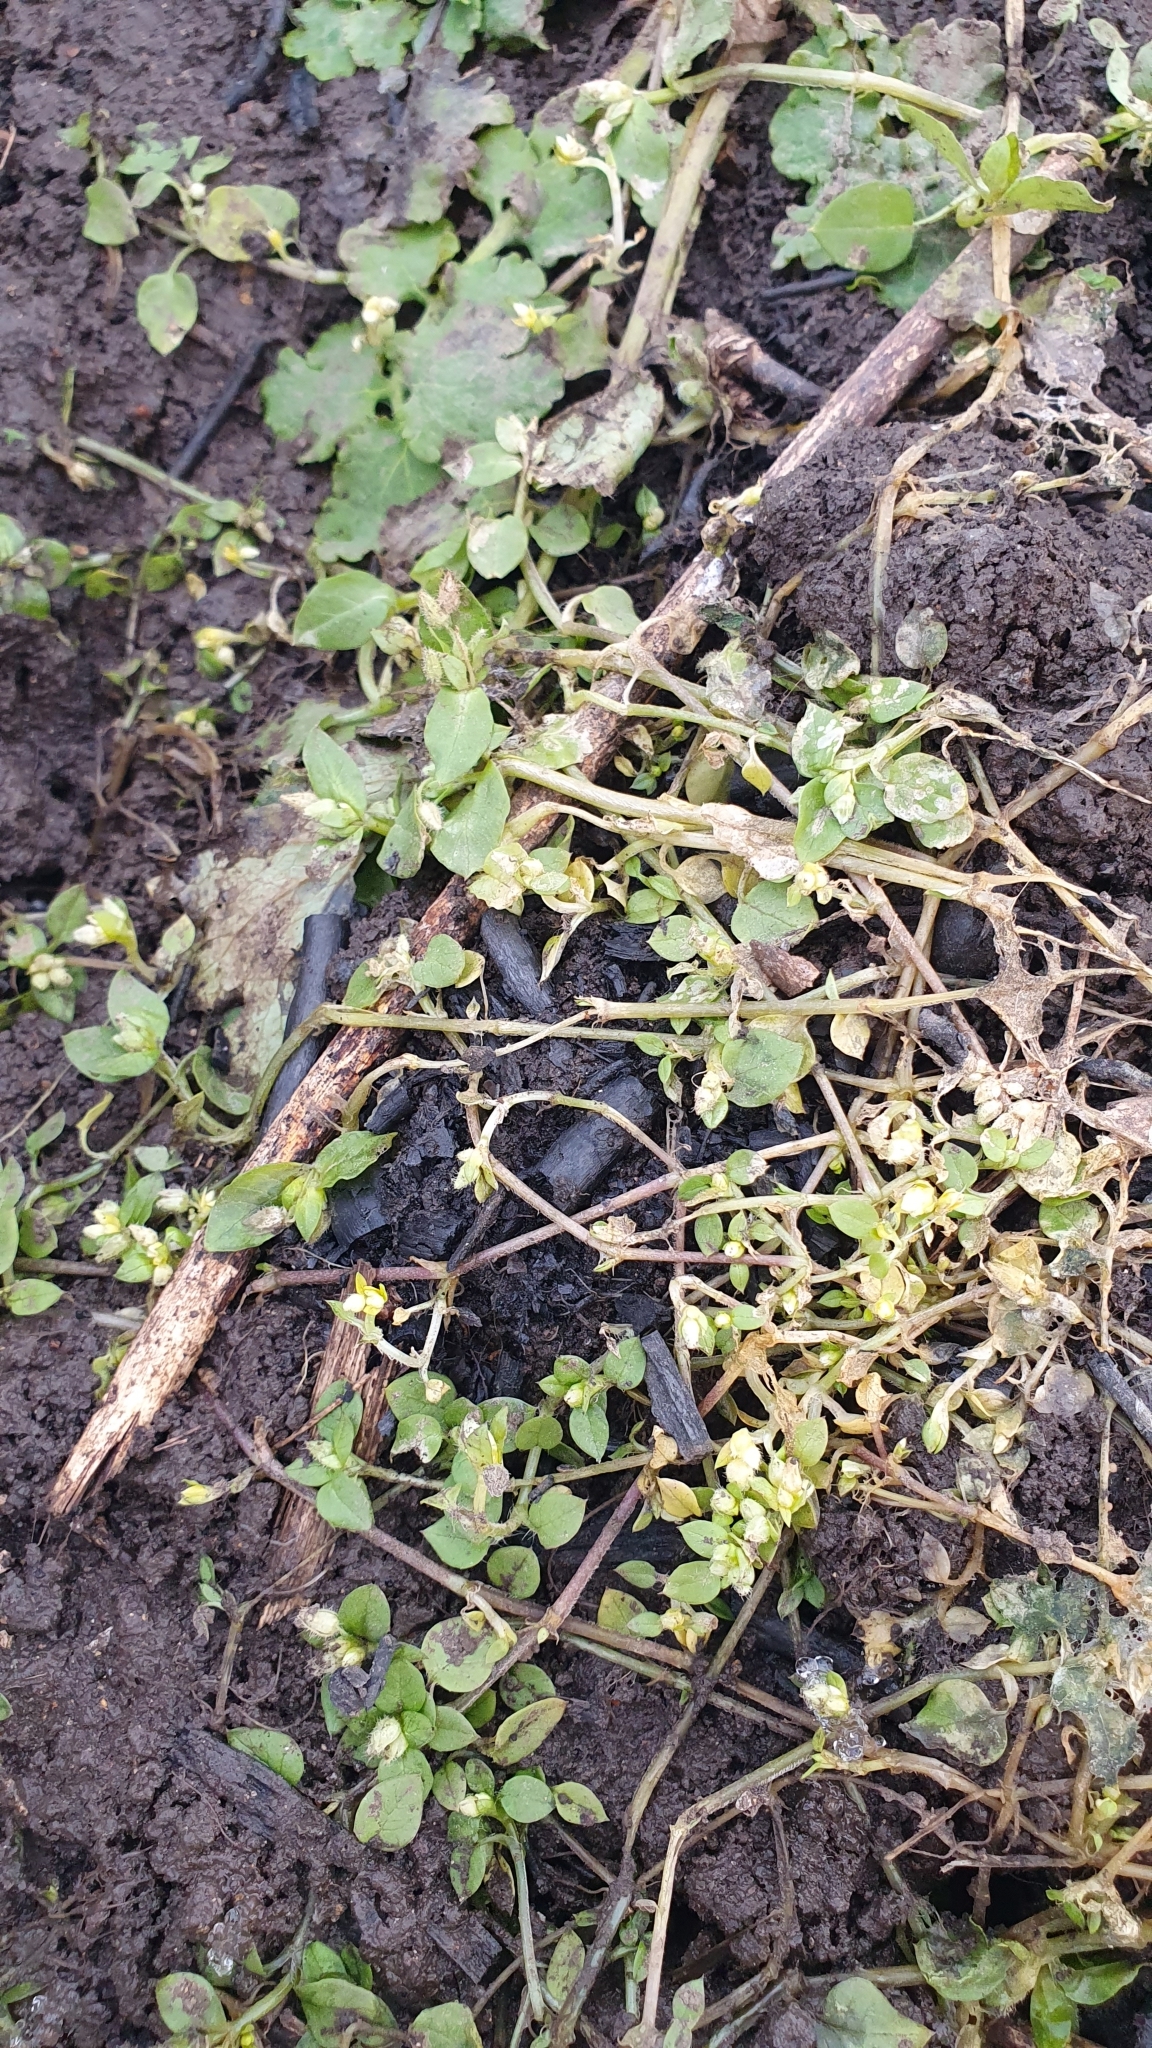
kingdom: Plantae
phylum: Tracheophyta
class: Magnoliopsida
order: Caryophyllales
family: Caryophyllaceae
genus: Stellaria
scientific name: Stellaria media
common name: Common chickweed
